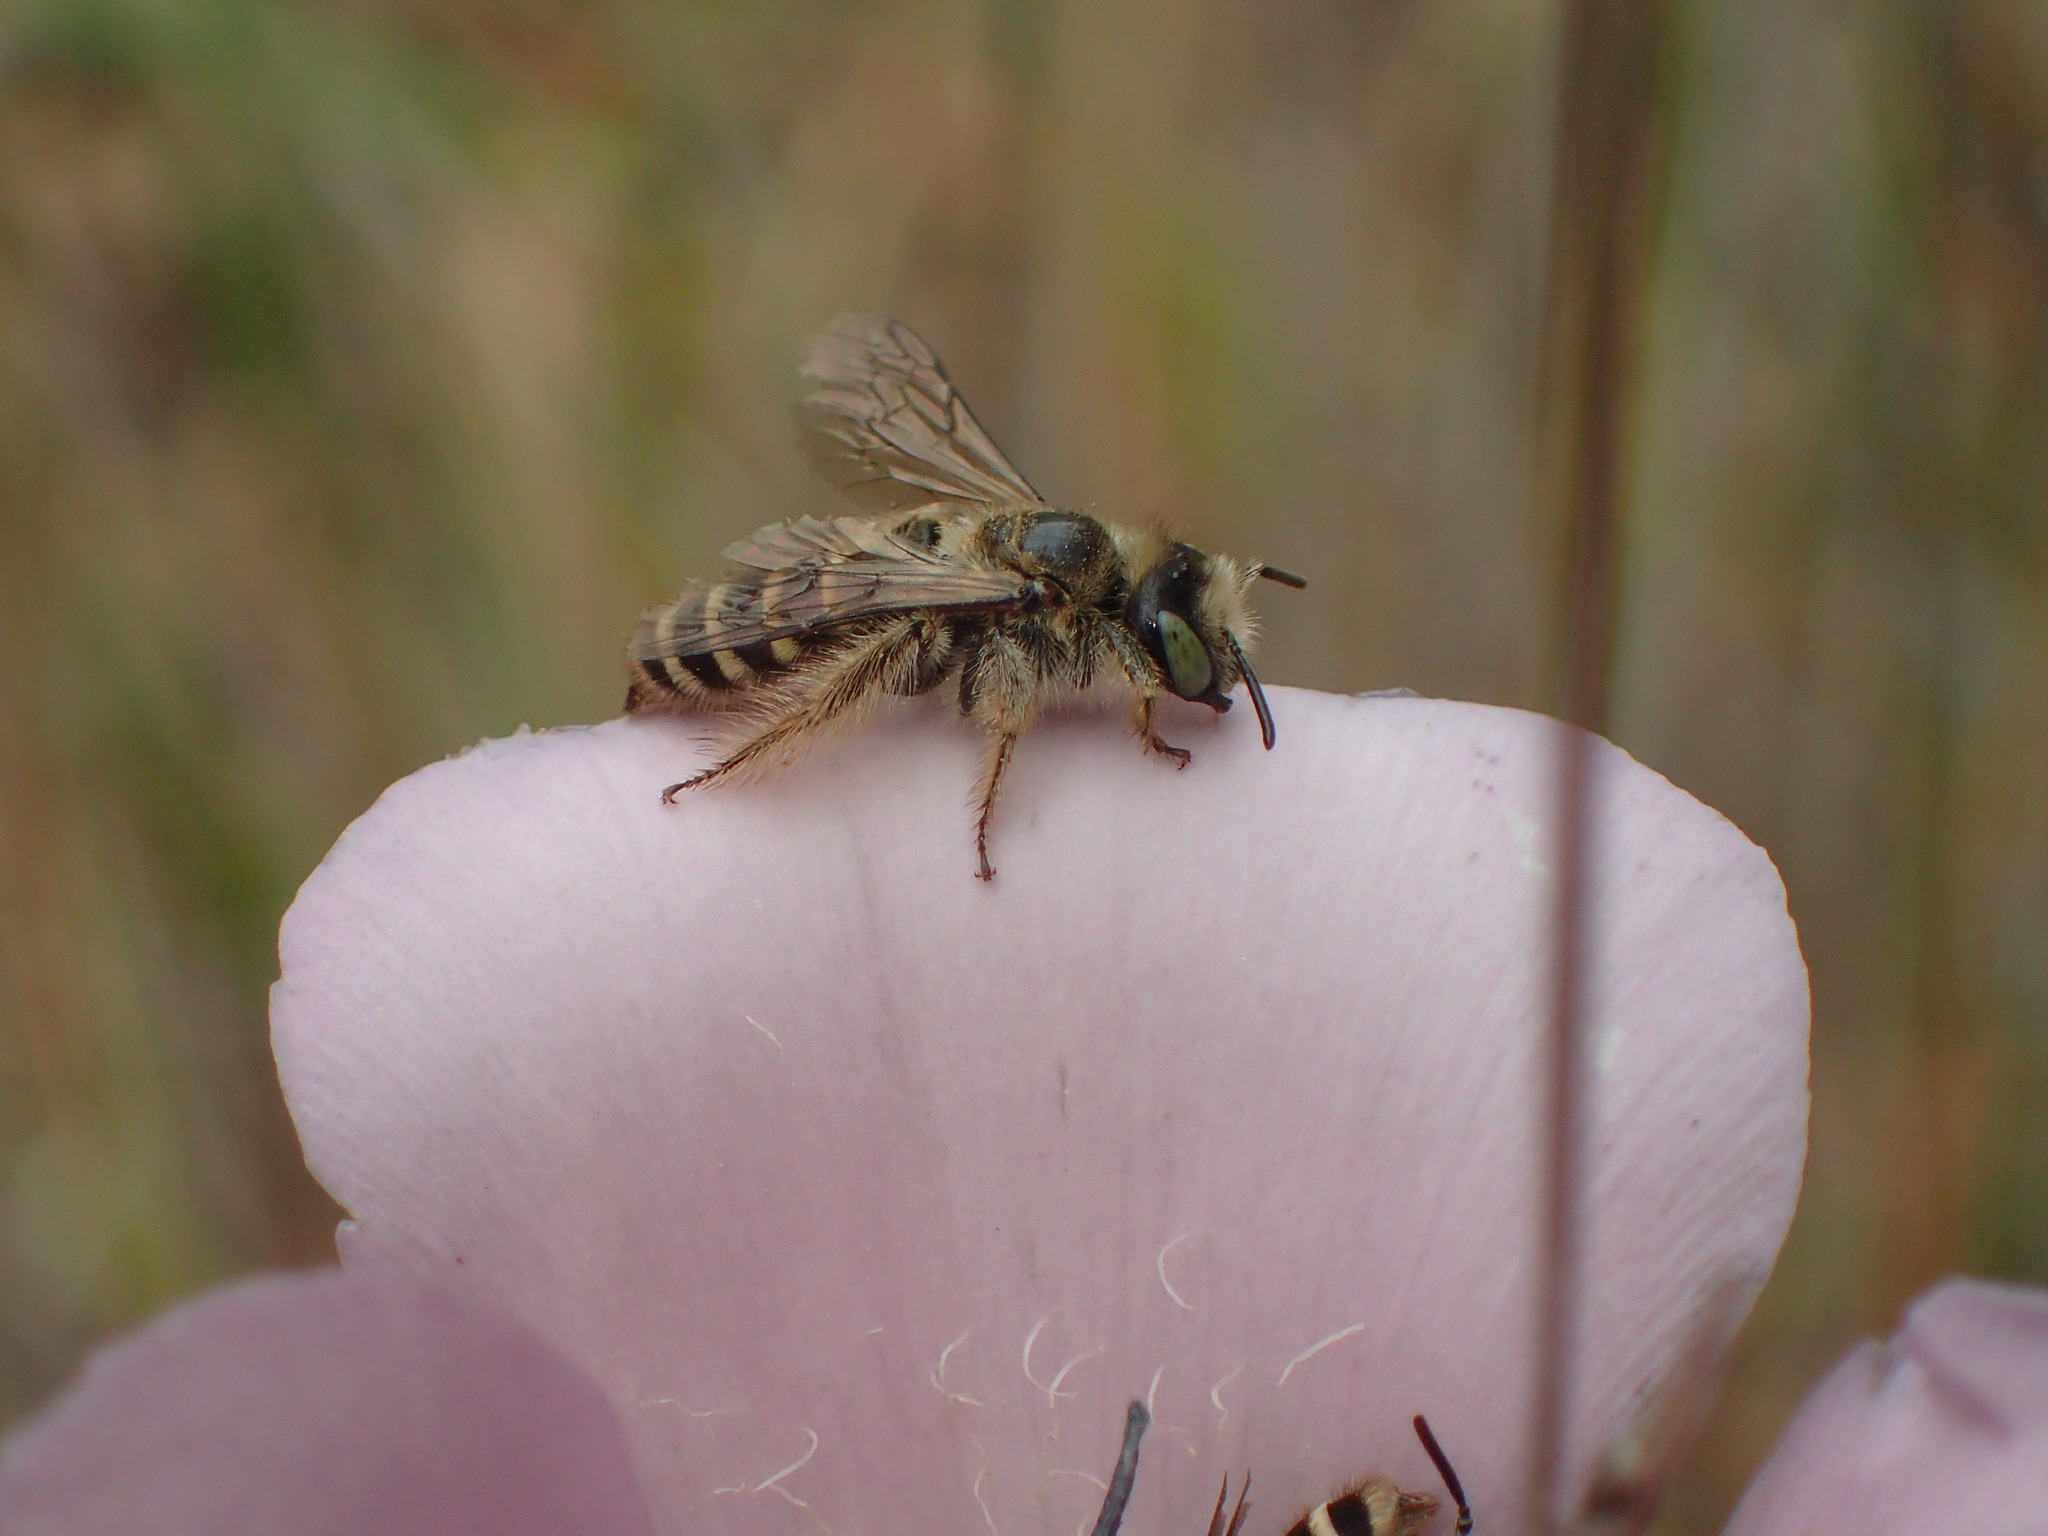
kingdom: Animalia
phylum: Arthropoda
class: Insecta
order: Hymenoptera
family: Melittidae
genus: Hesperapis
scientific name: Hesperapis regularis
